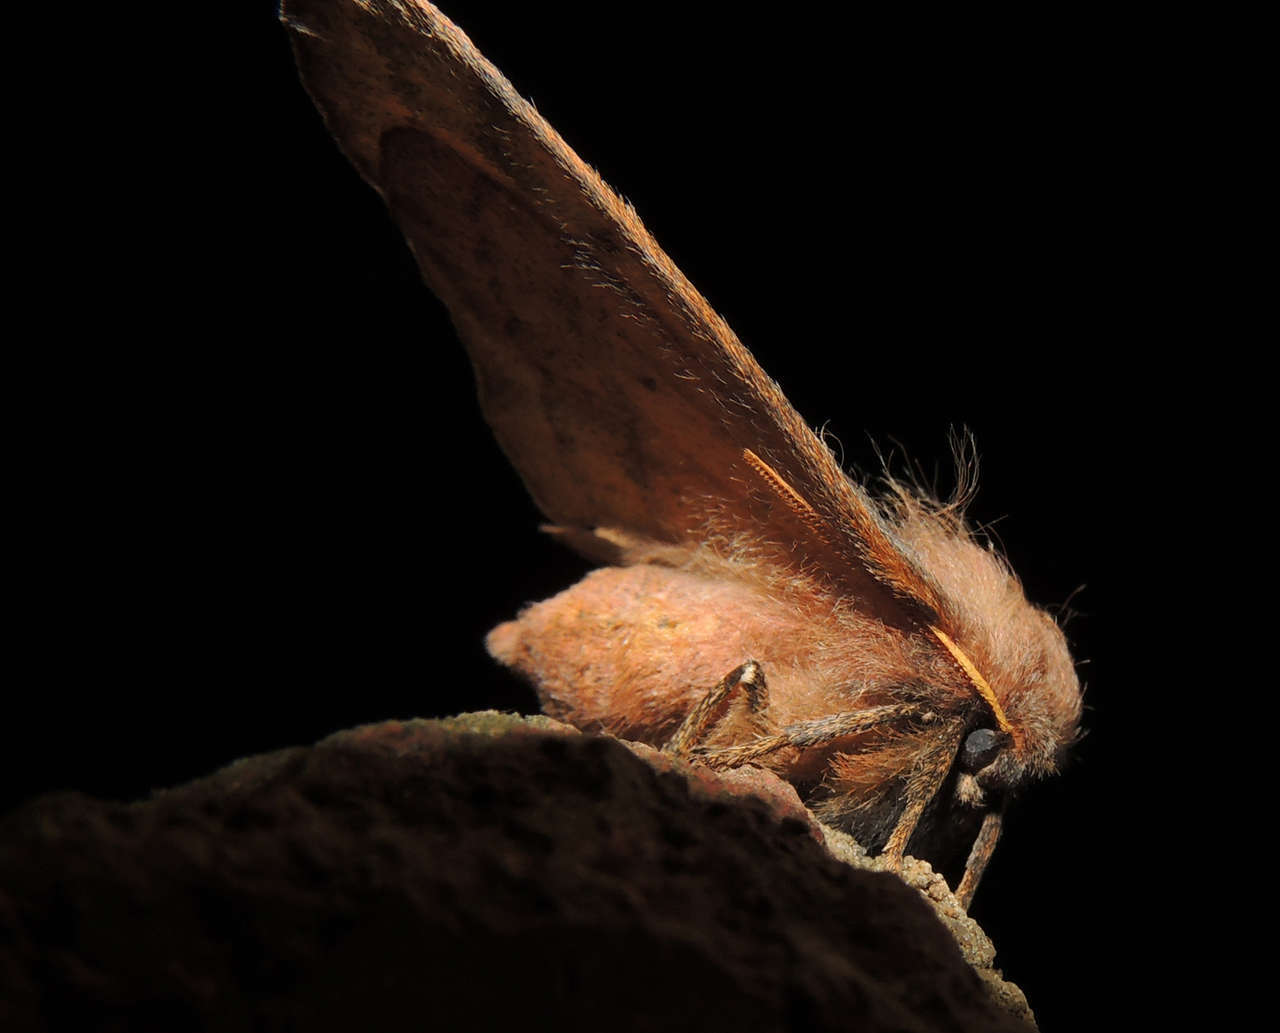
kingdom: Animalia
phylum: Arthropoda
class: Insecta
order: Lepidoptera
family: Anthelidae
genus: Anthela
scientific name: Anthela acuta
